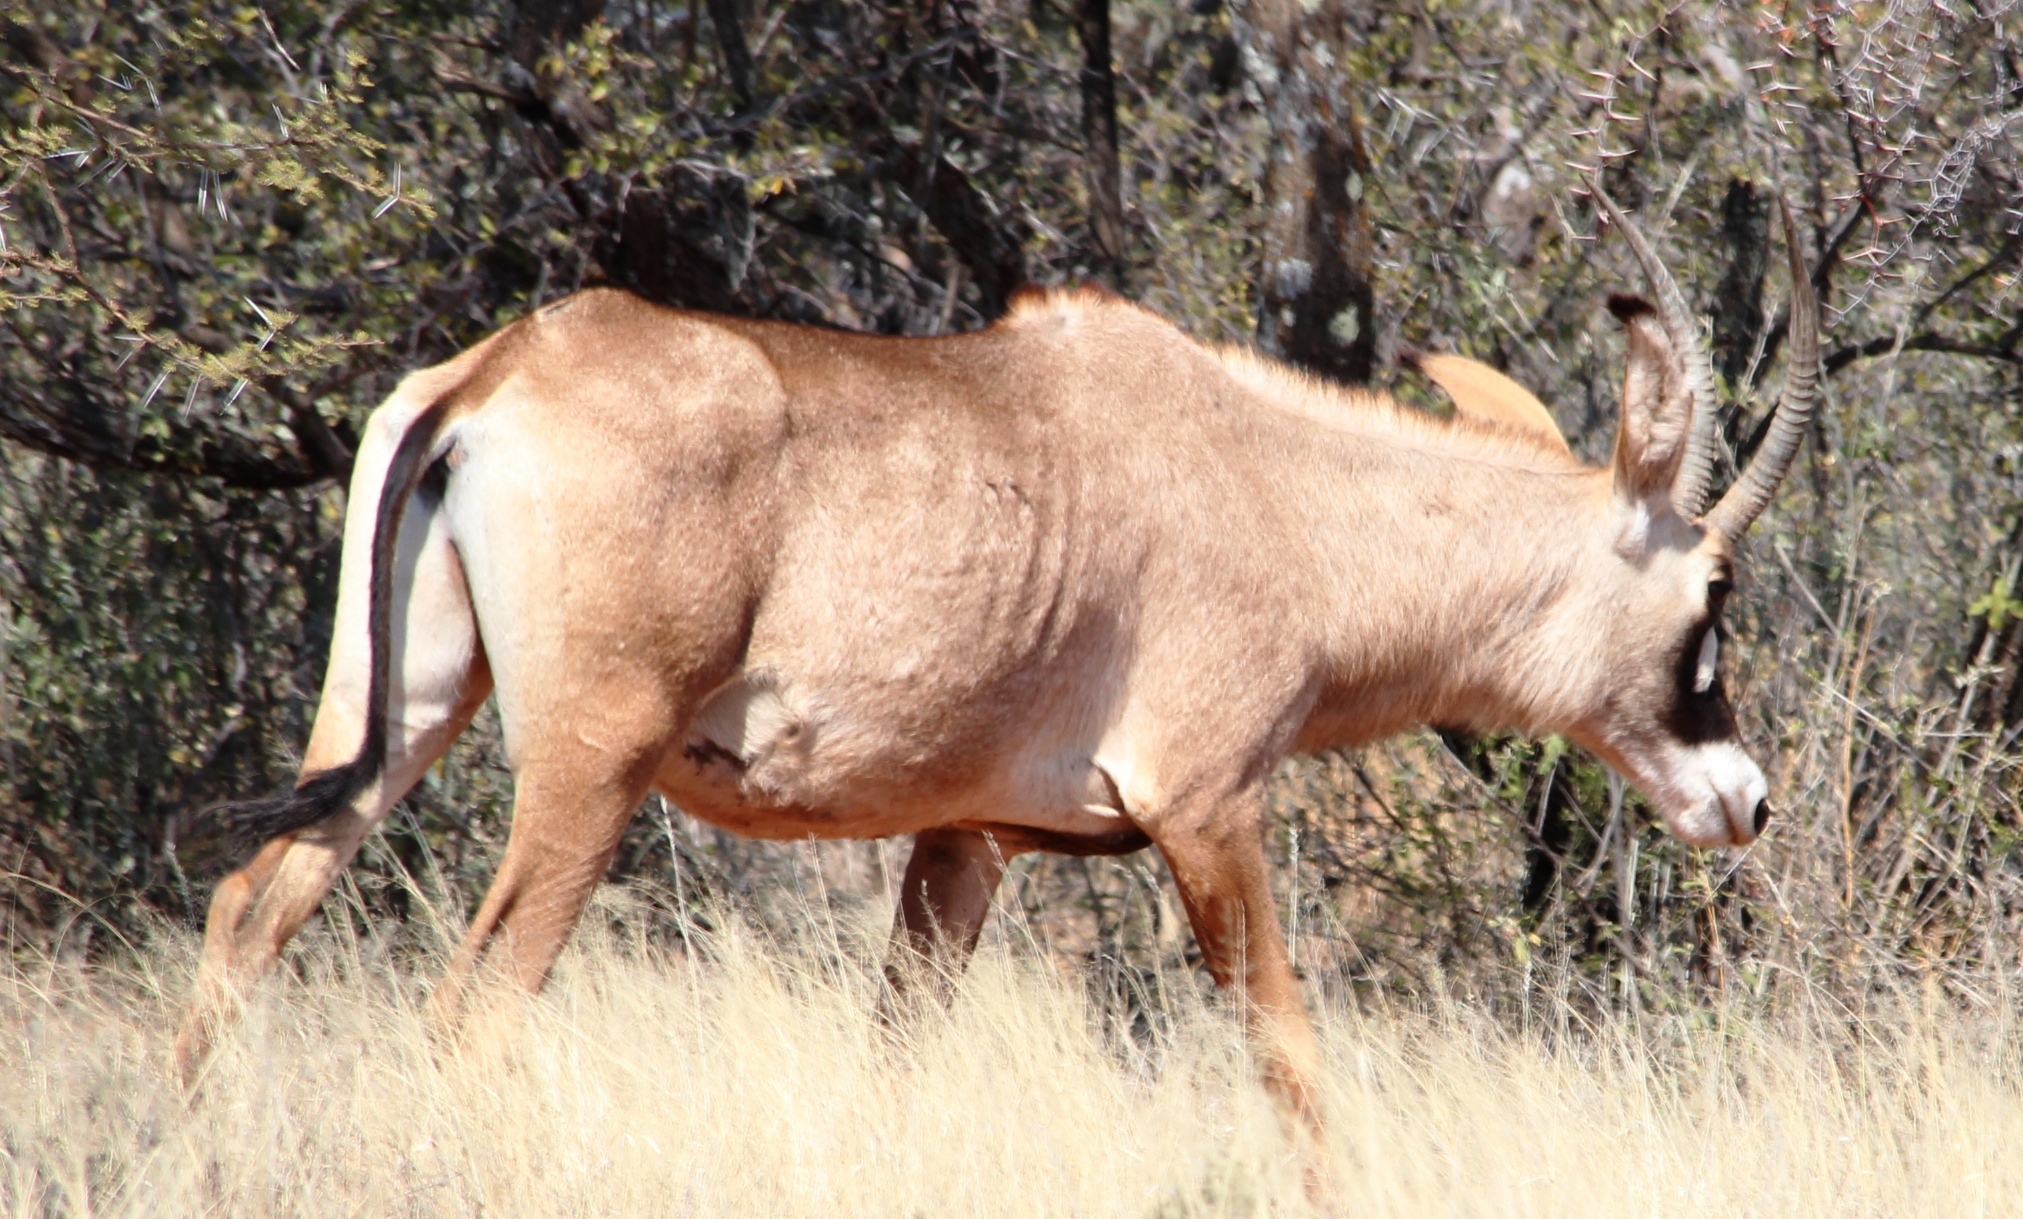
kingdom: Animalia
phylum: Chordata
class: Mammalia
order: Artiodactyla
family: Bovidae
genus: Hippotragus
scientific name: Hippotragus equinus
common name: Roan antelope
